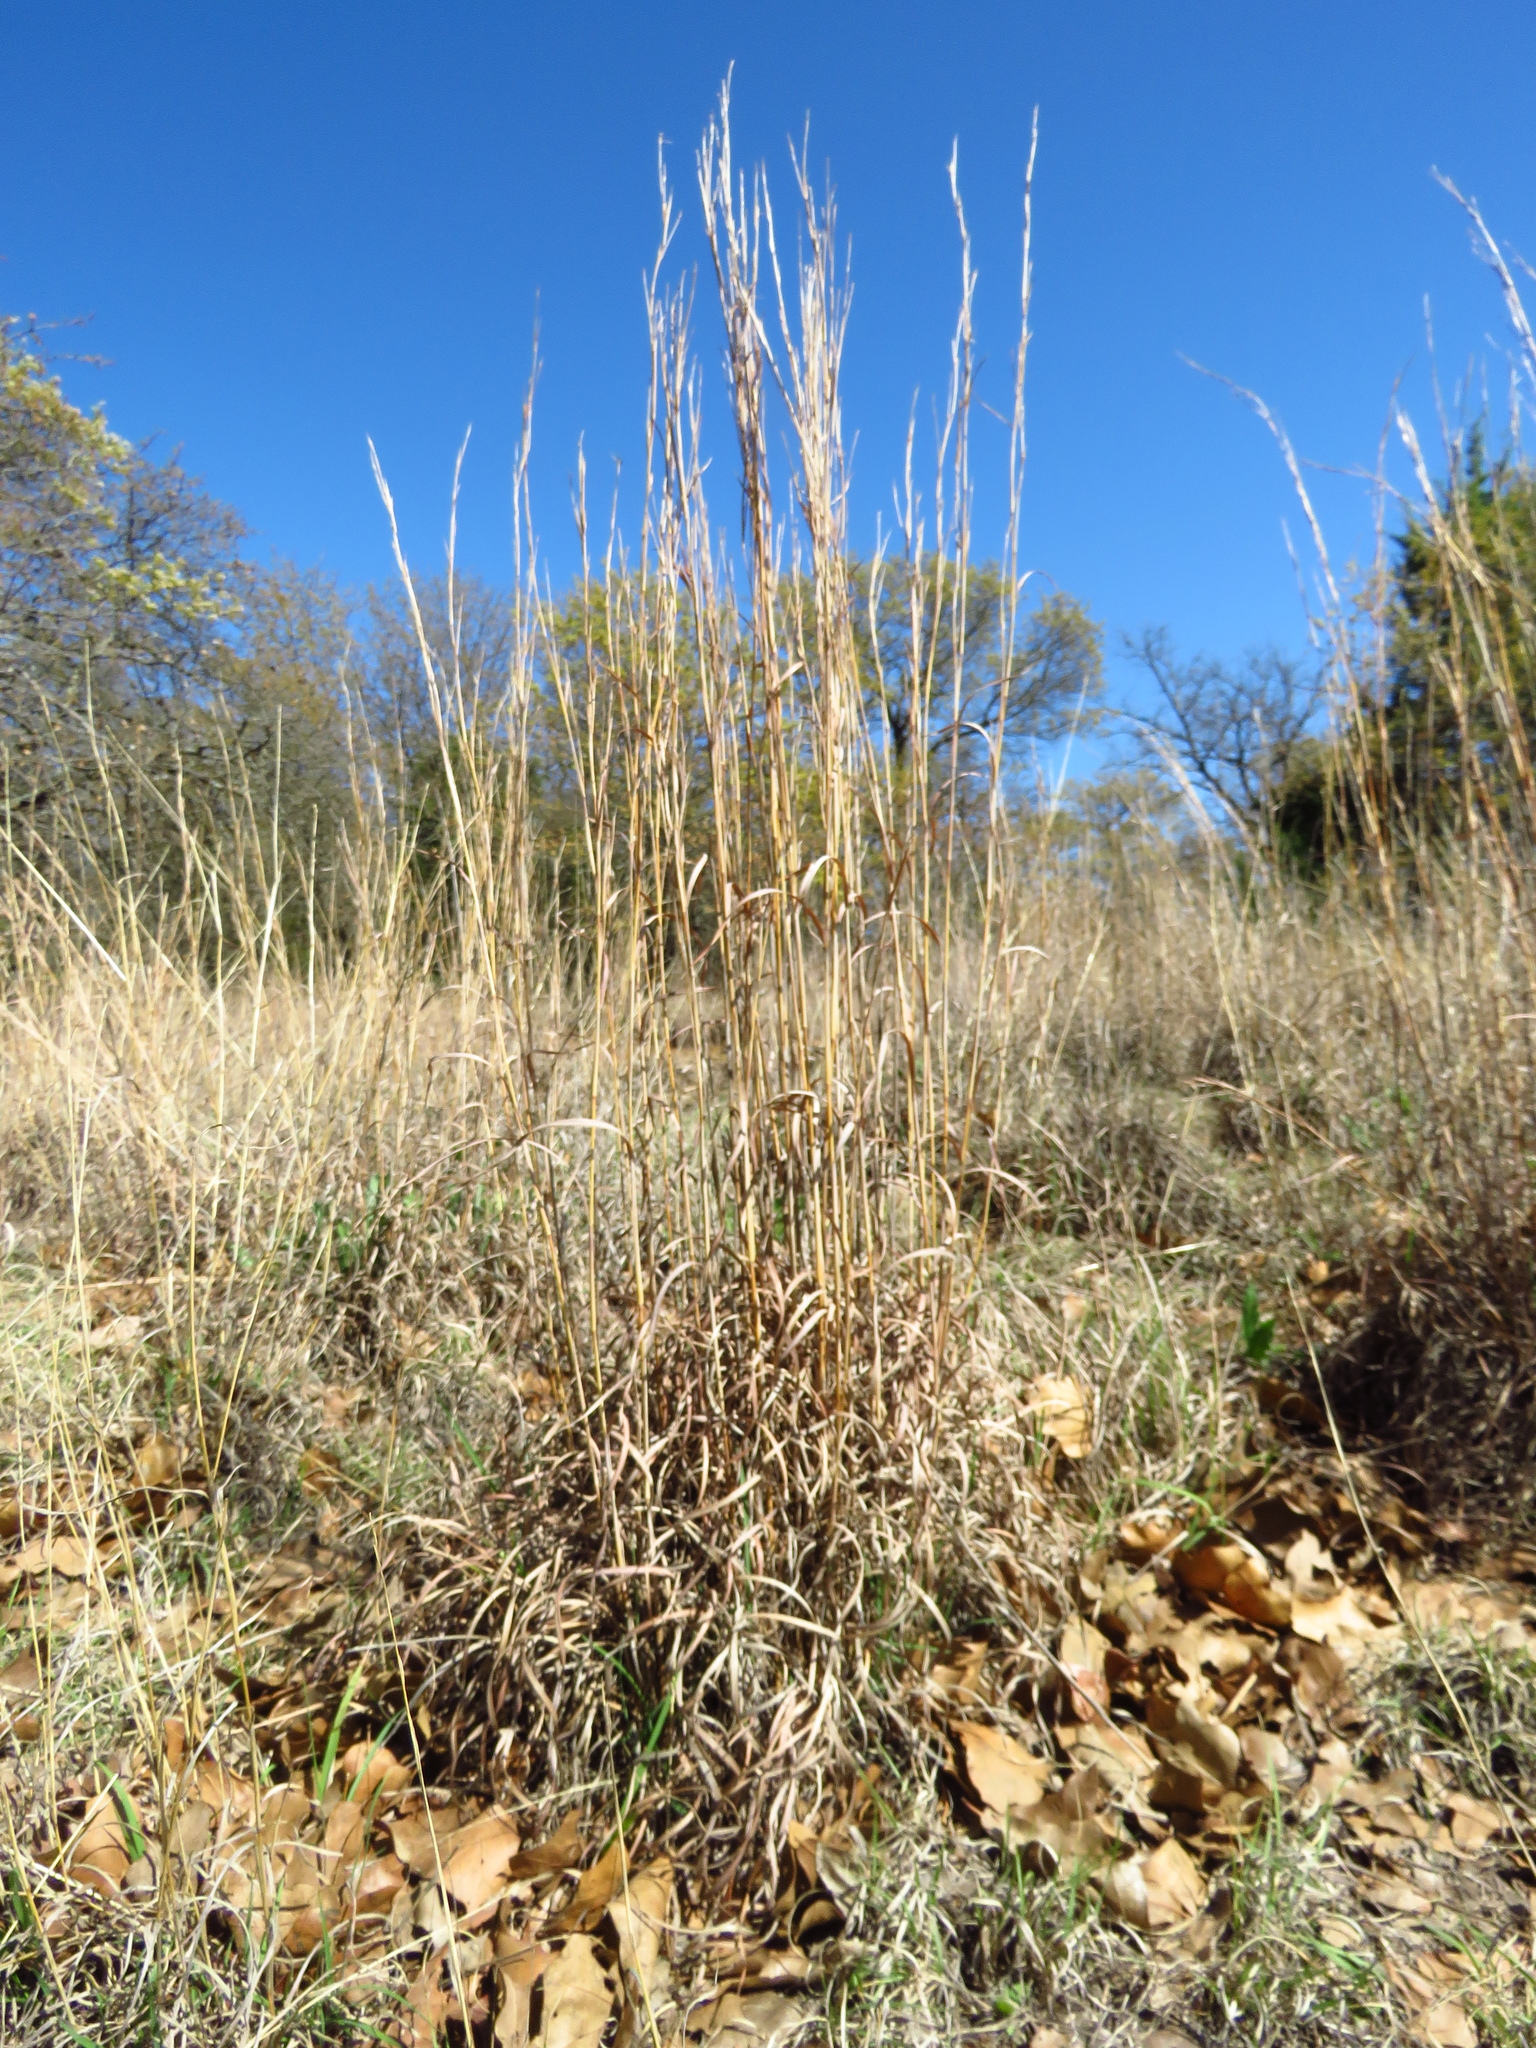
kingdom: Plantae
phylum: Tracheophyta
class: Liliopsida
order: Poales
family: Poaceae
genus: Schizachyrium
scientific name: Schizachyrium scoparium
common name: Little bluestem
